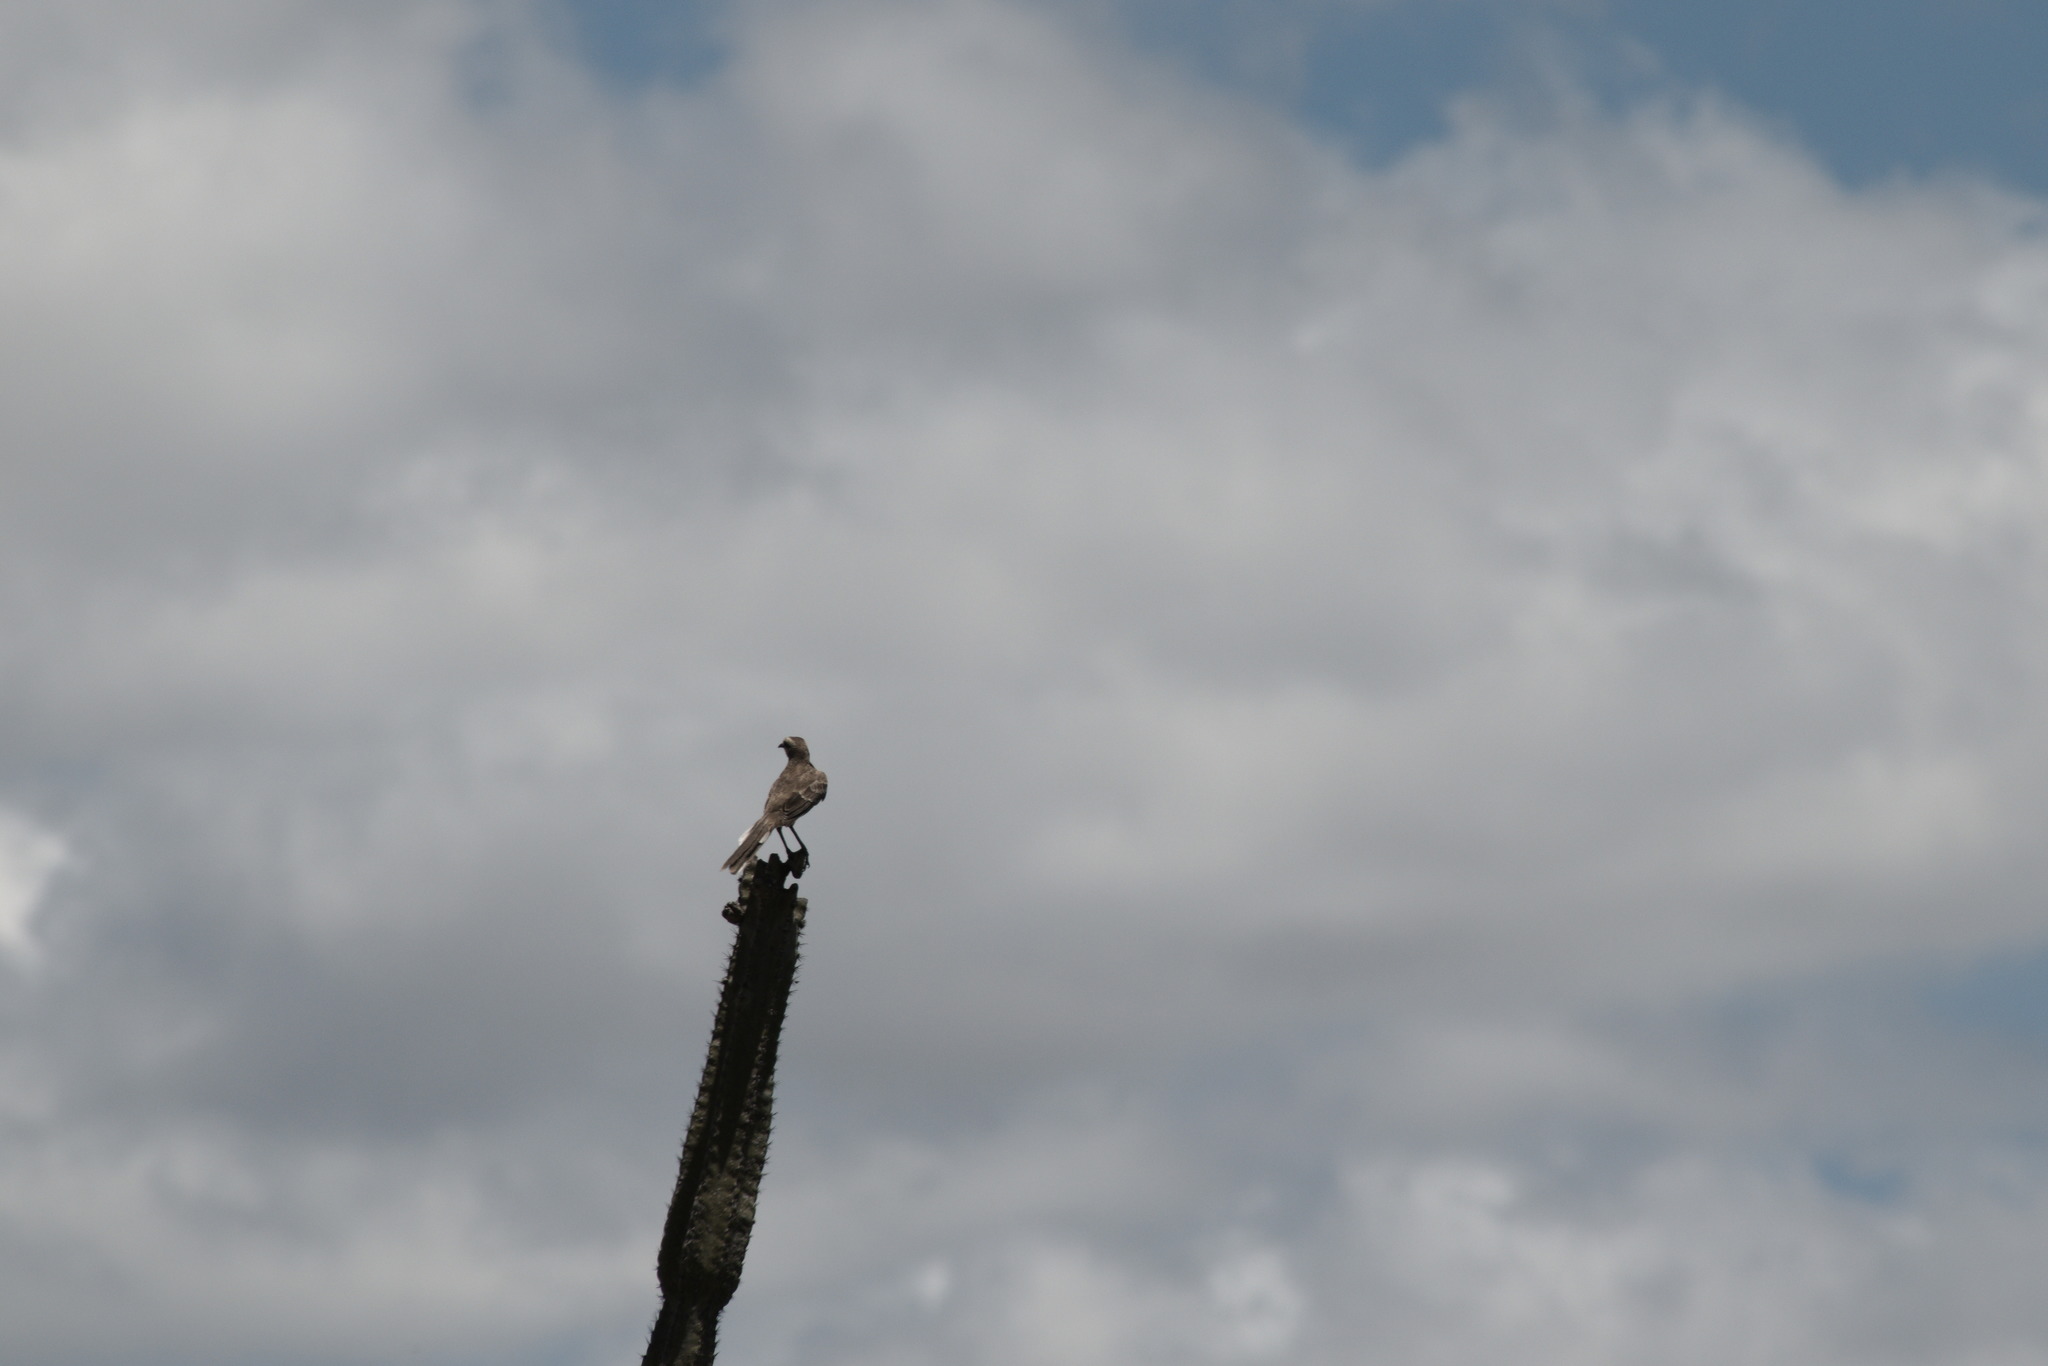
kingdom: Animalia
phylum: Chordata
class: Aves
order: Passeriformes
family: Mimidae
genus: Mimus
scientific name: Mimus saturninus
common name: Chalk-browed mockingbird
